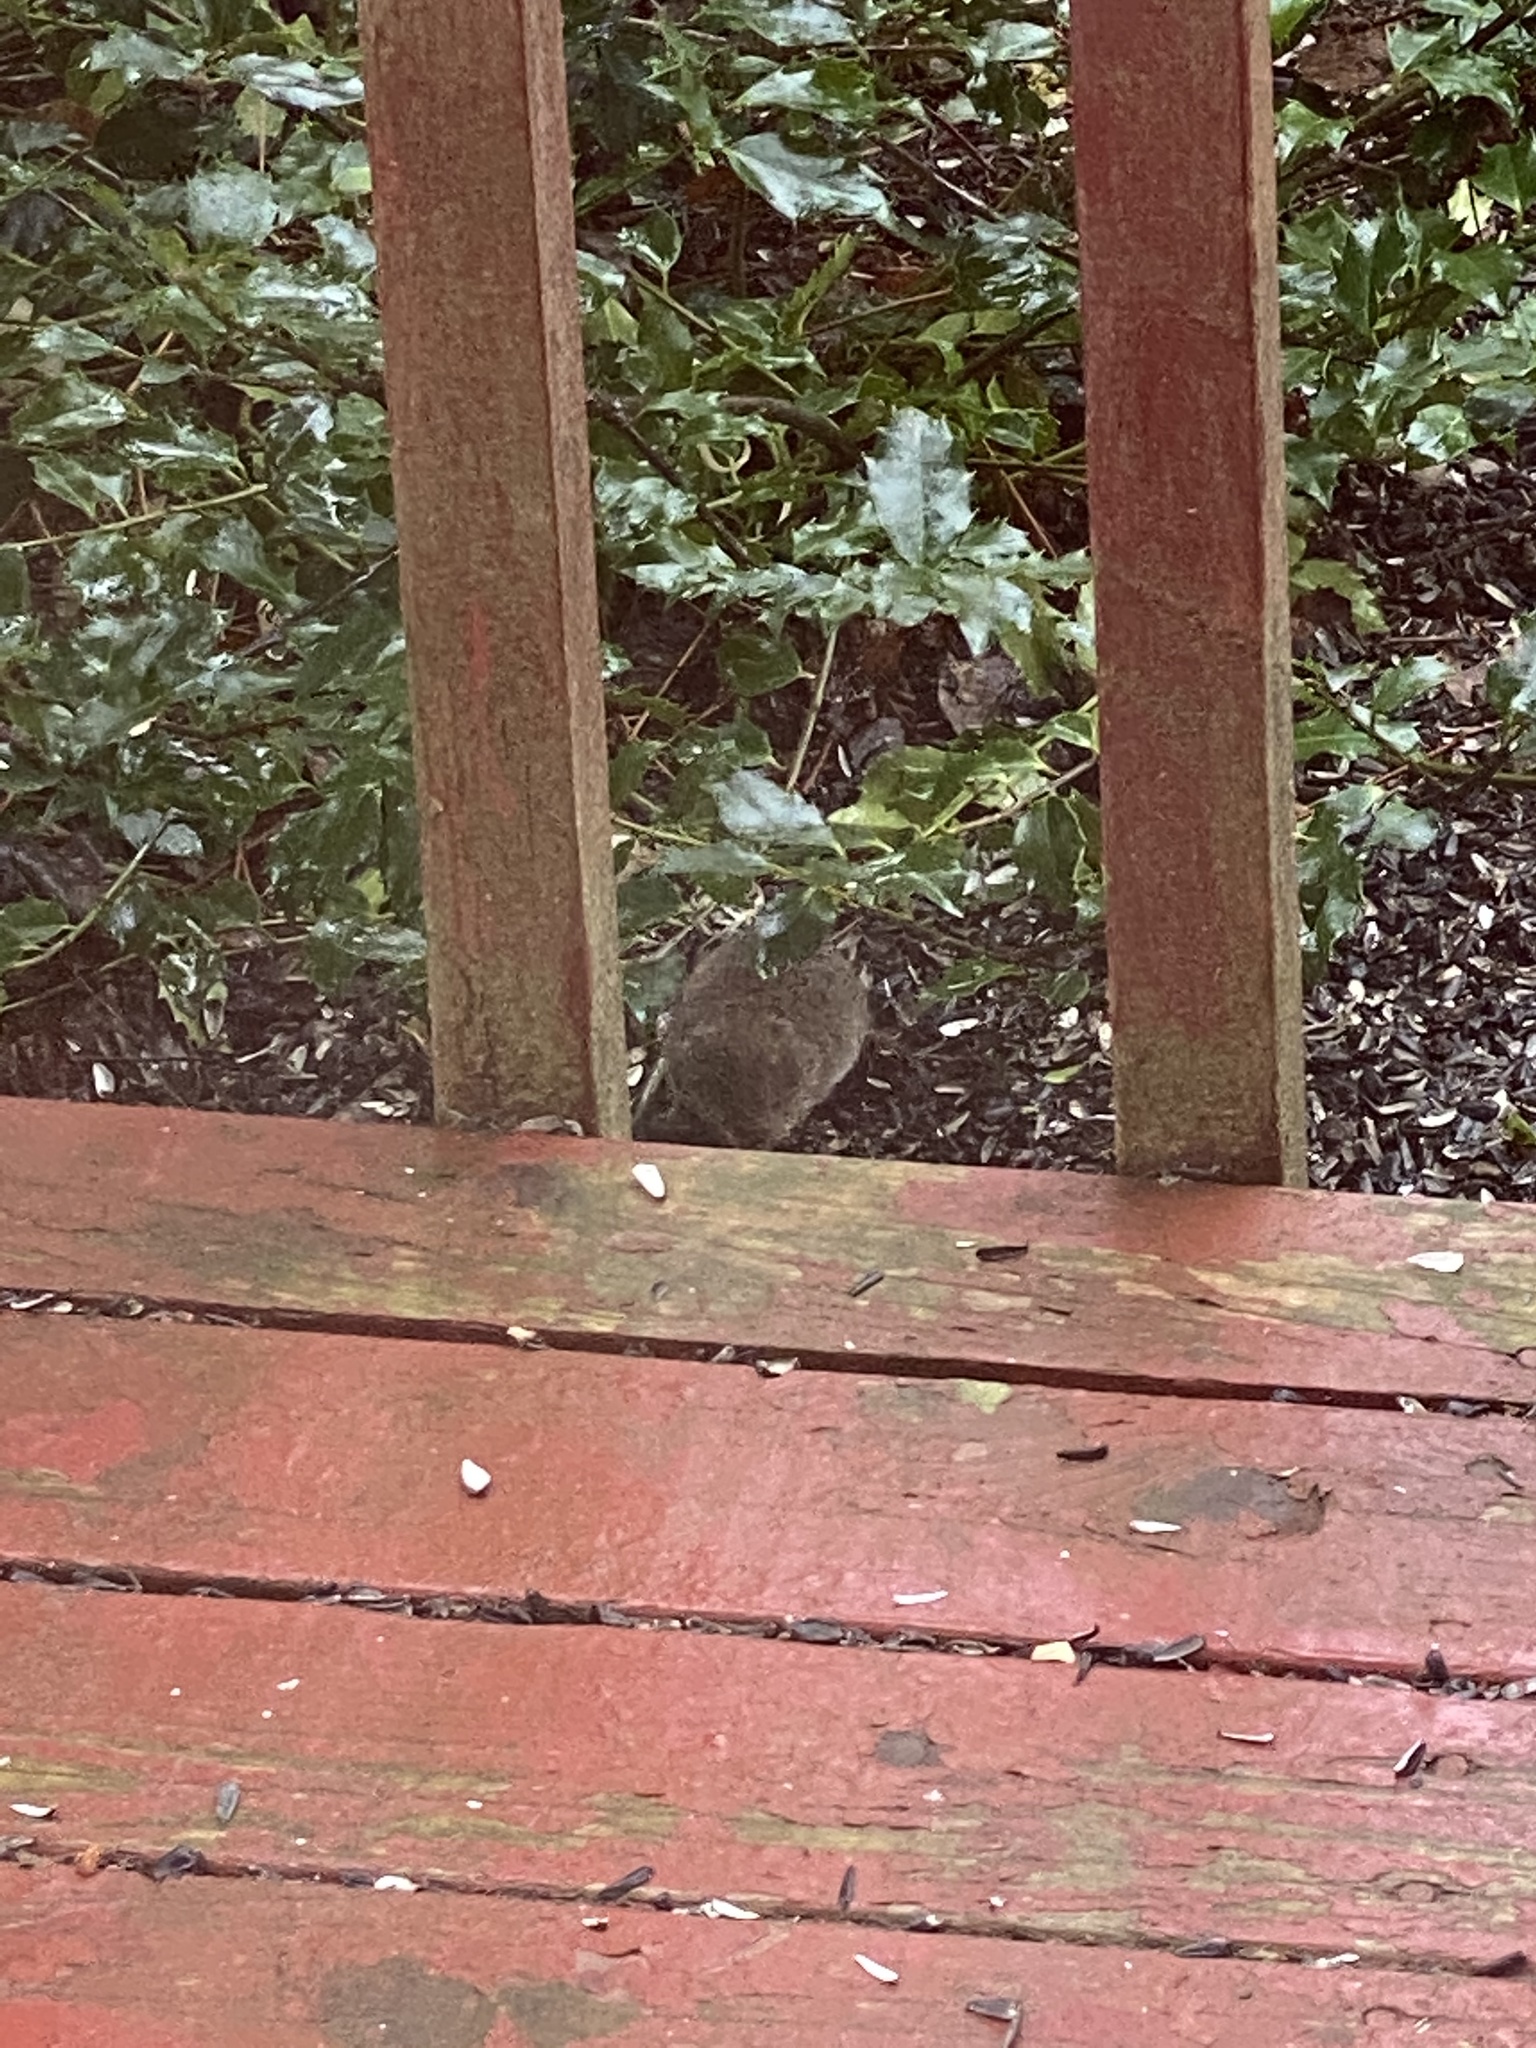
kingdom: Animalia
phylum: Chordata
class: Mammalia
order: Rodentia
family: Cricetidae
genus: Microtus
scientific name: Microtus pennsylvanicus
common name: Meadow vole
